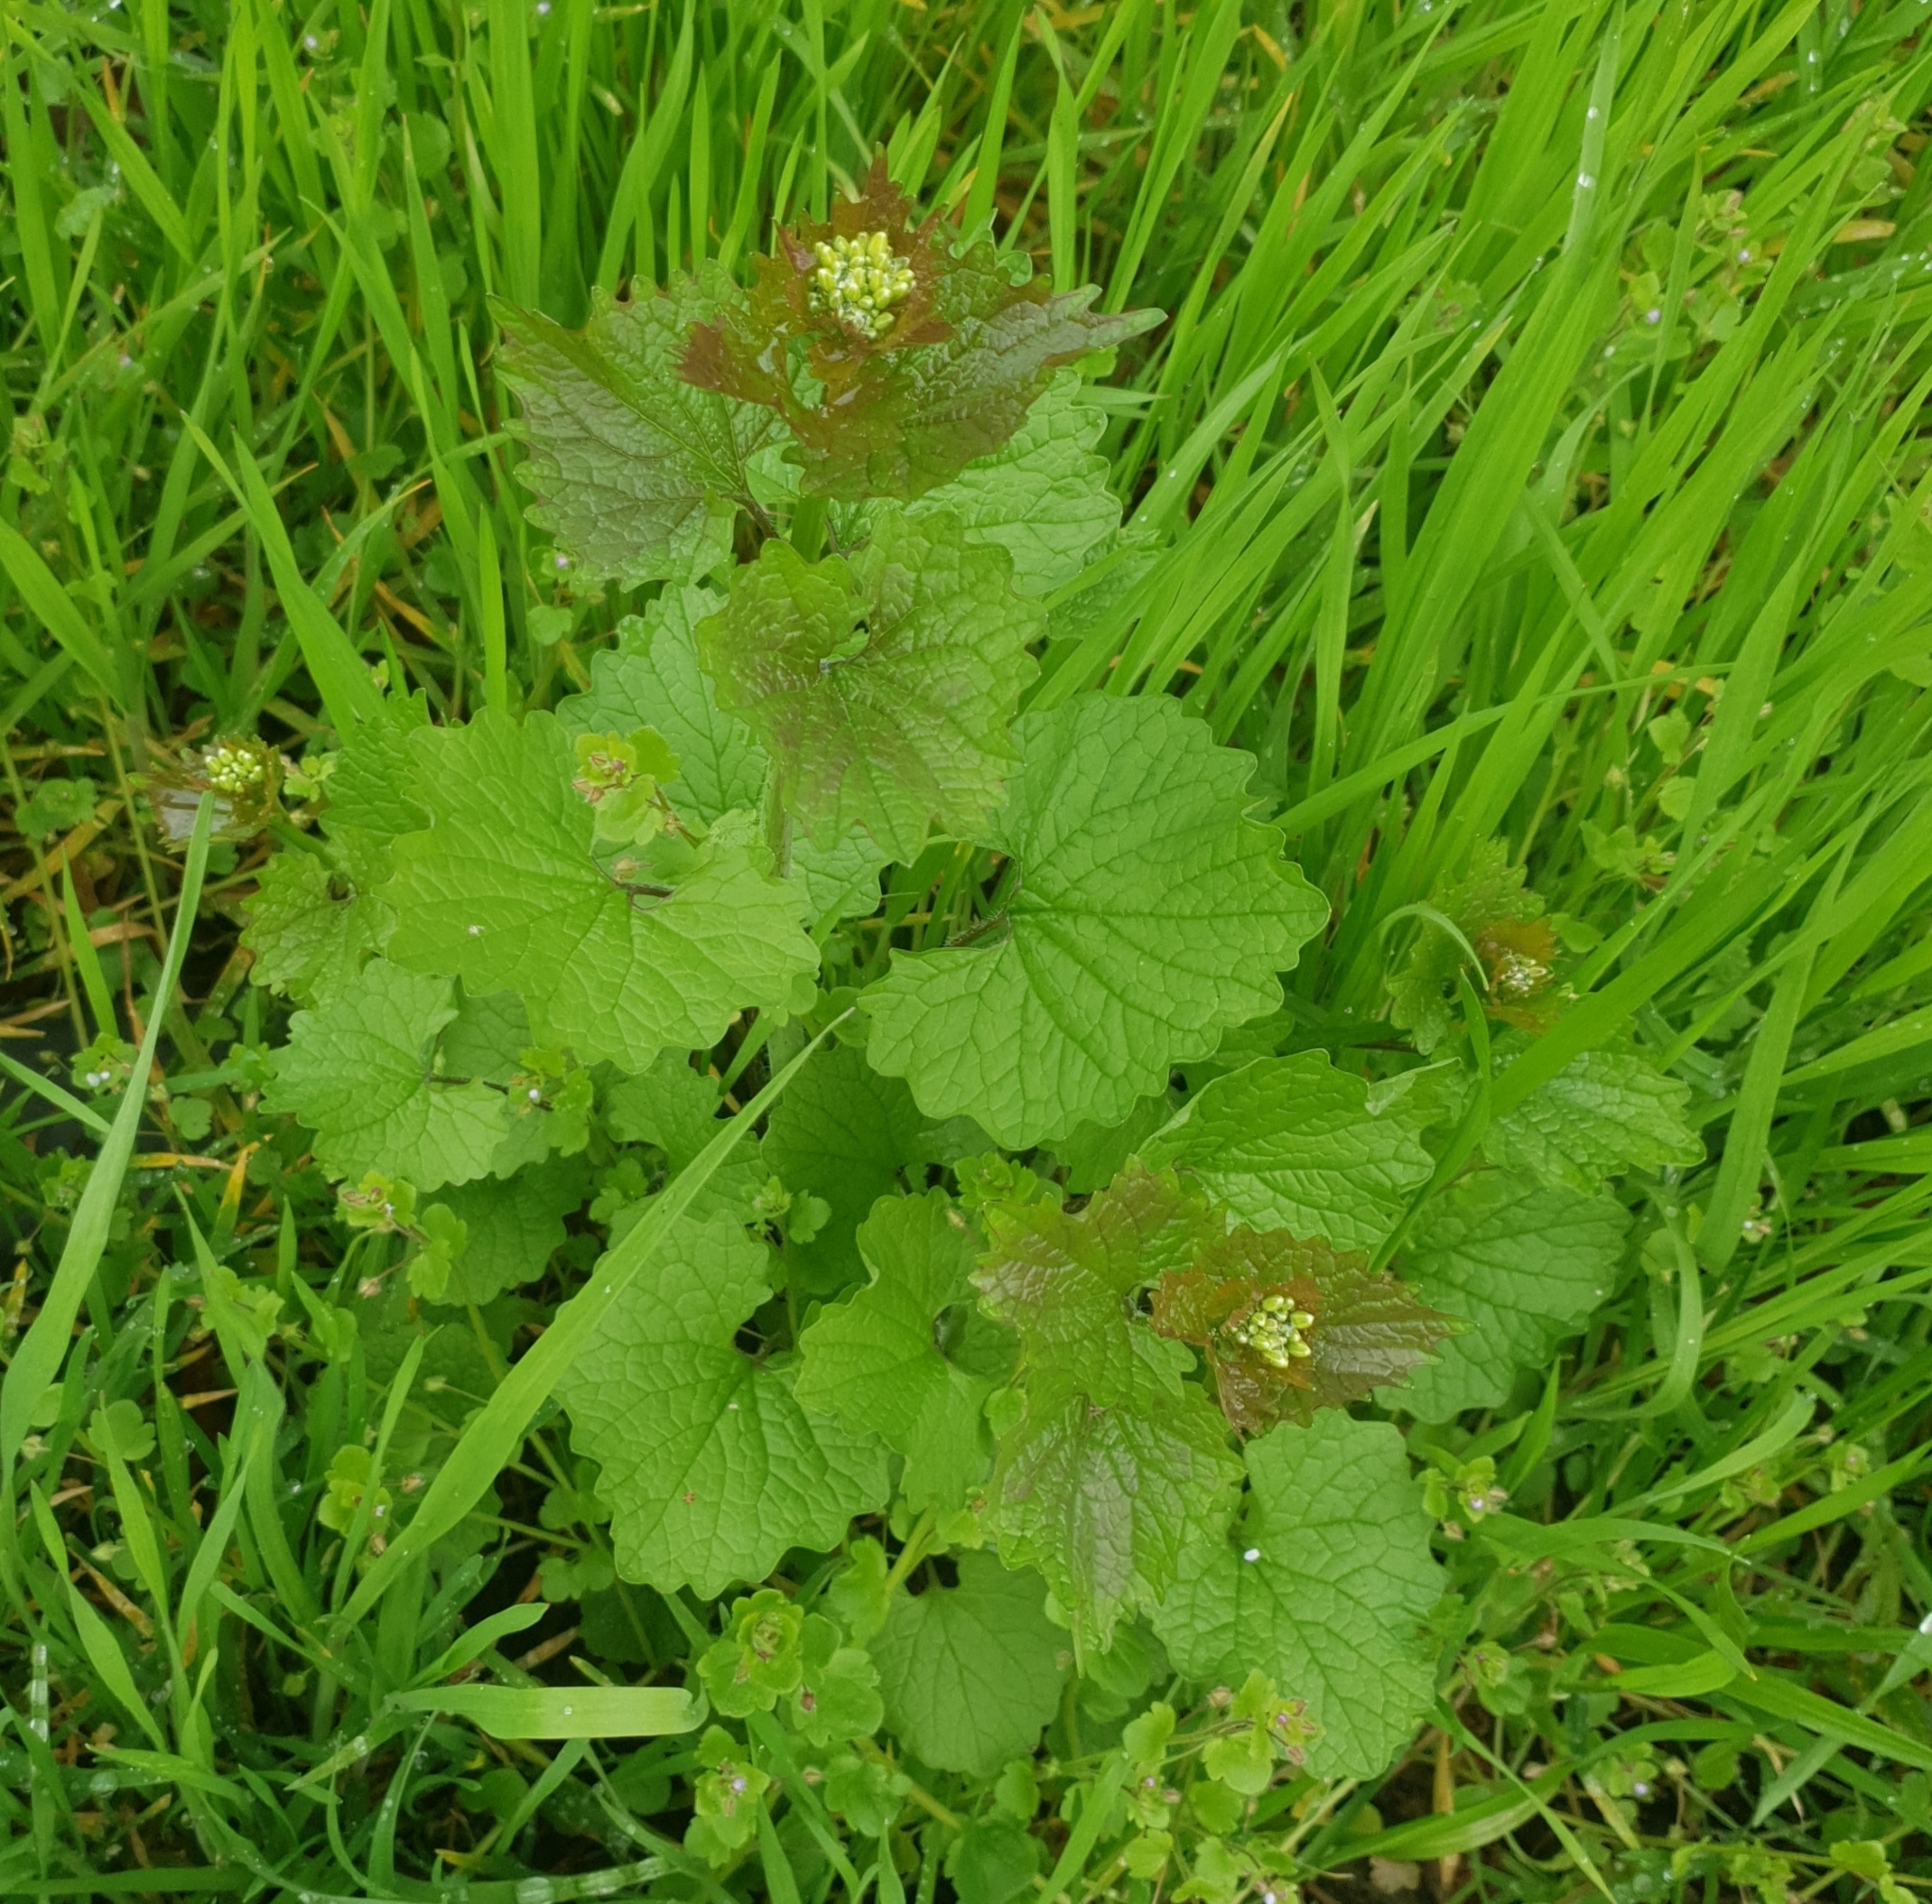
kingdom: Plantae
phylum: Tracheophyta
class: Magnoliopsida
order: Brassicales
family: Brassicaceae
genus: Alliaria
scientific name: Alliaria petiolata
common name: Garlic mustard
